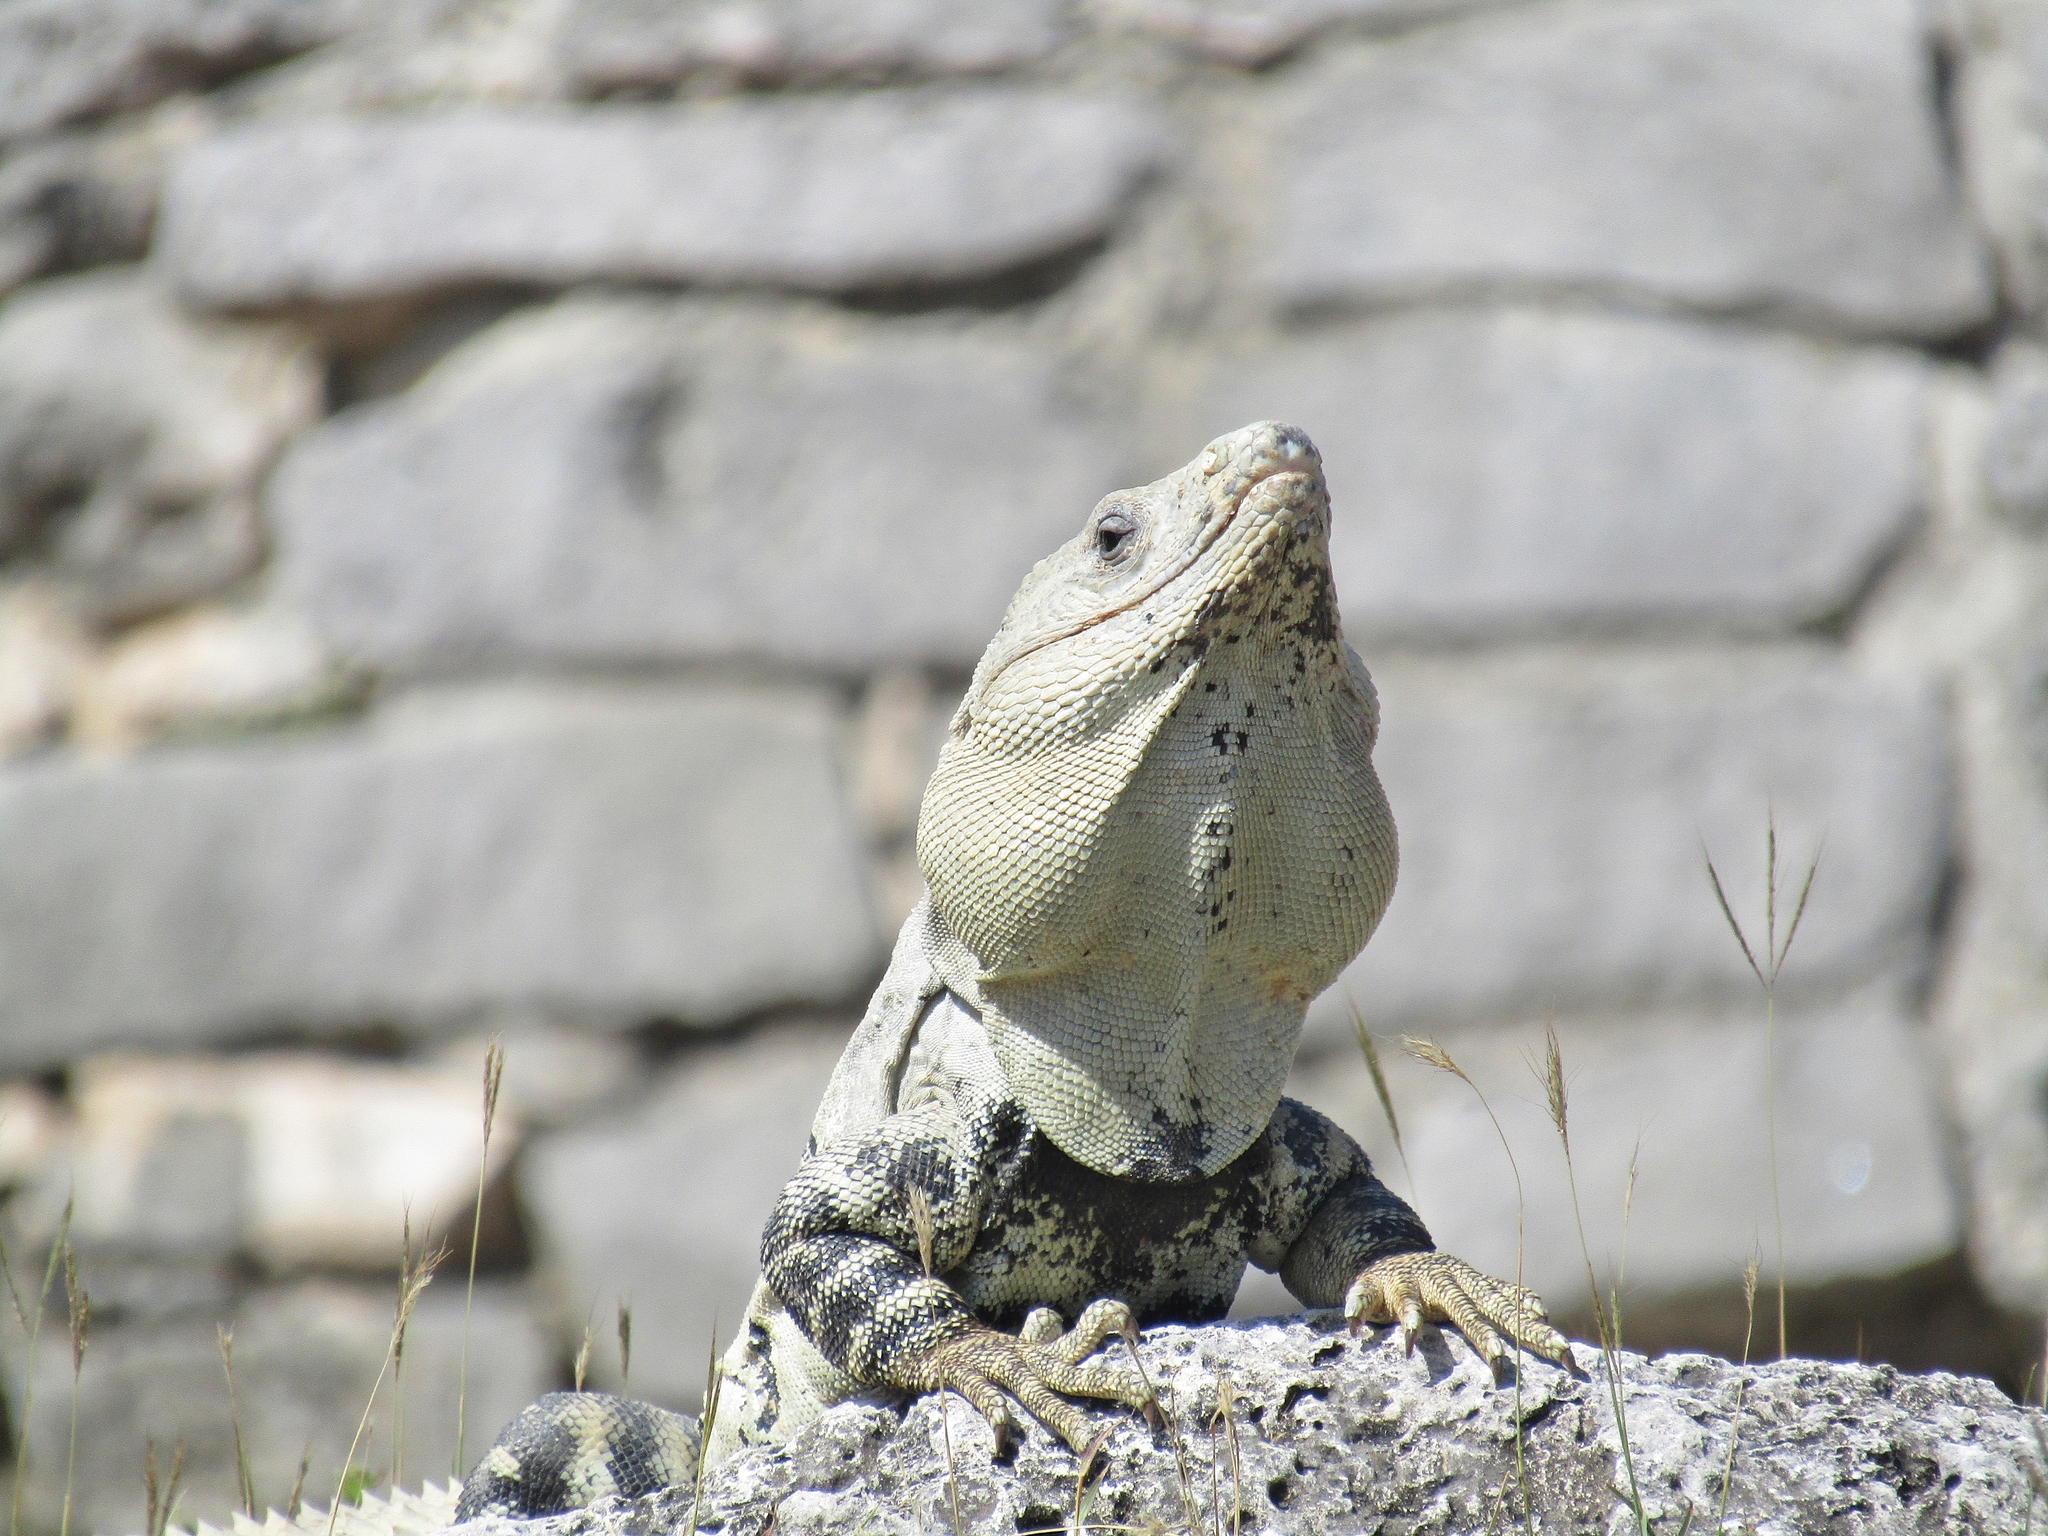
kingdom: Animalia
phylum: Chordata
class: Squamata
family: Iguanidae
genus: Ctenosaura
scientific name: Ctenosaura similis
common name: Black spiny-tailed iguana
